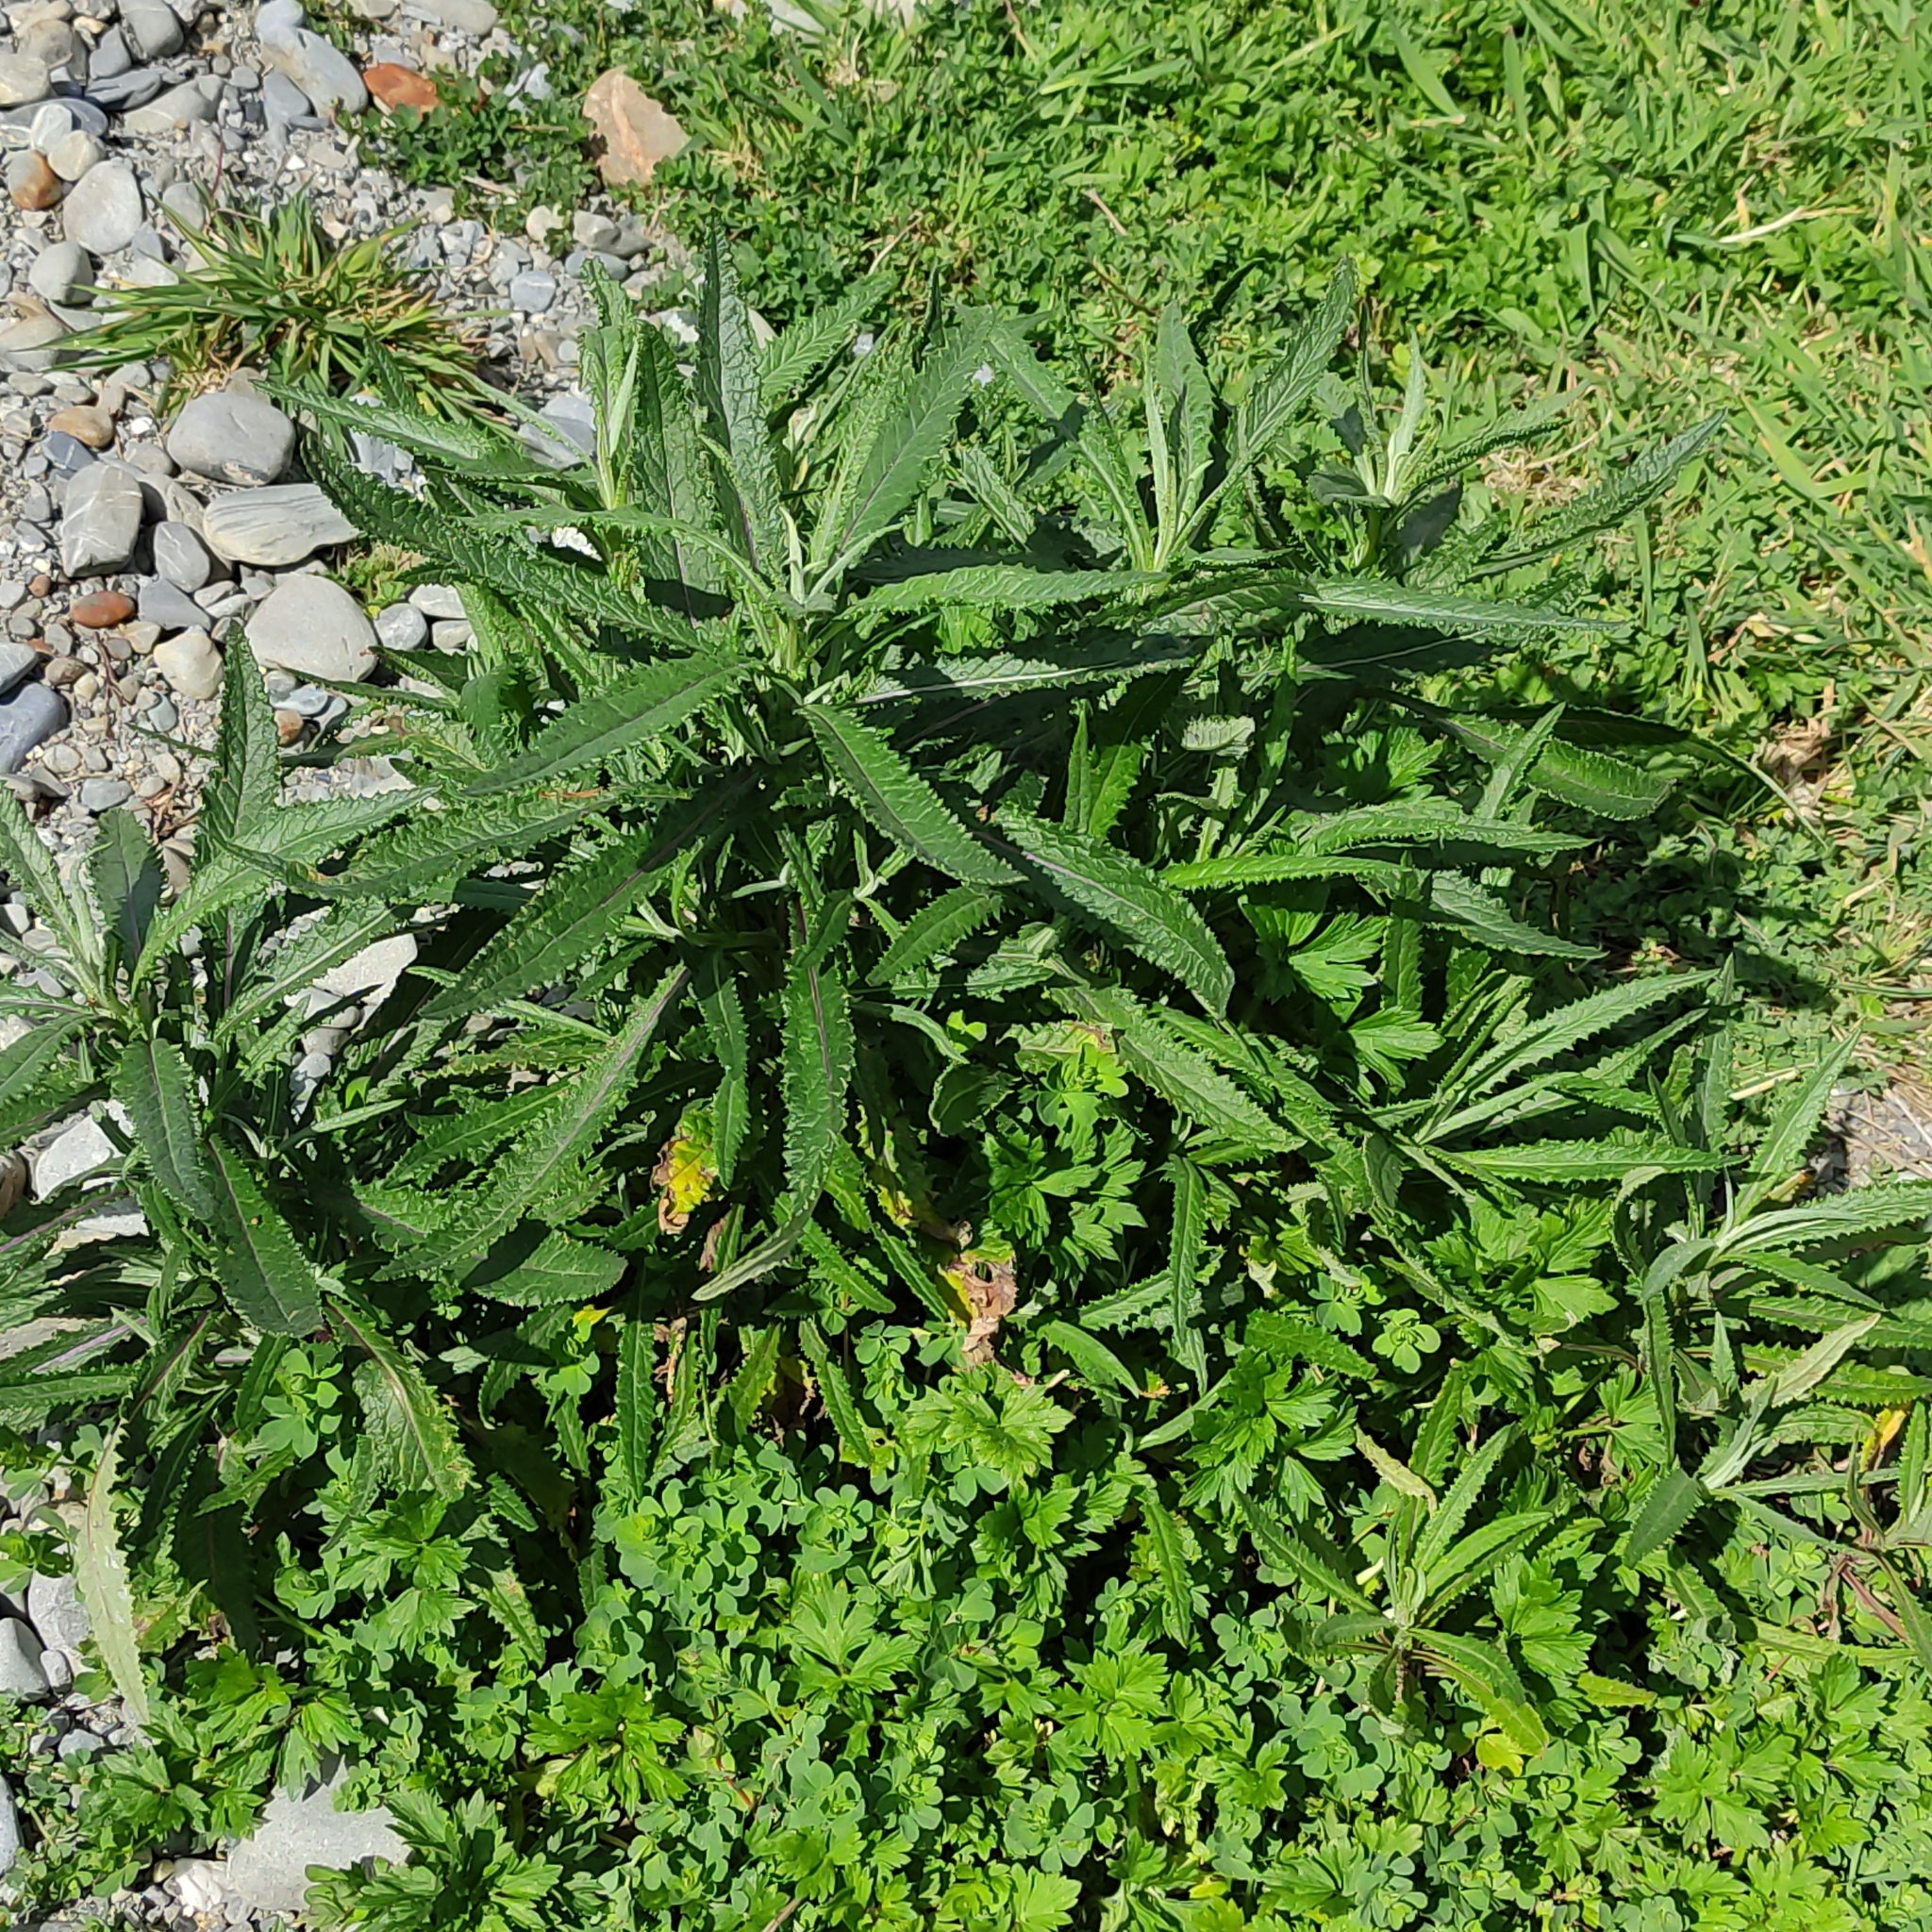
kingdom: Plantae
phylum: Tracheophyta
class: Magnoliopsida
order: Asterales
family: Asteraceae
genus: Senecio
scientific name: Senecio minimus
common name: Toothed fireweed
